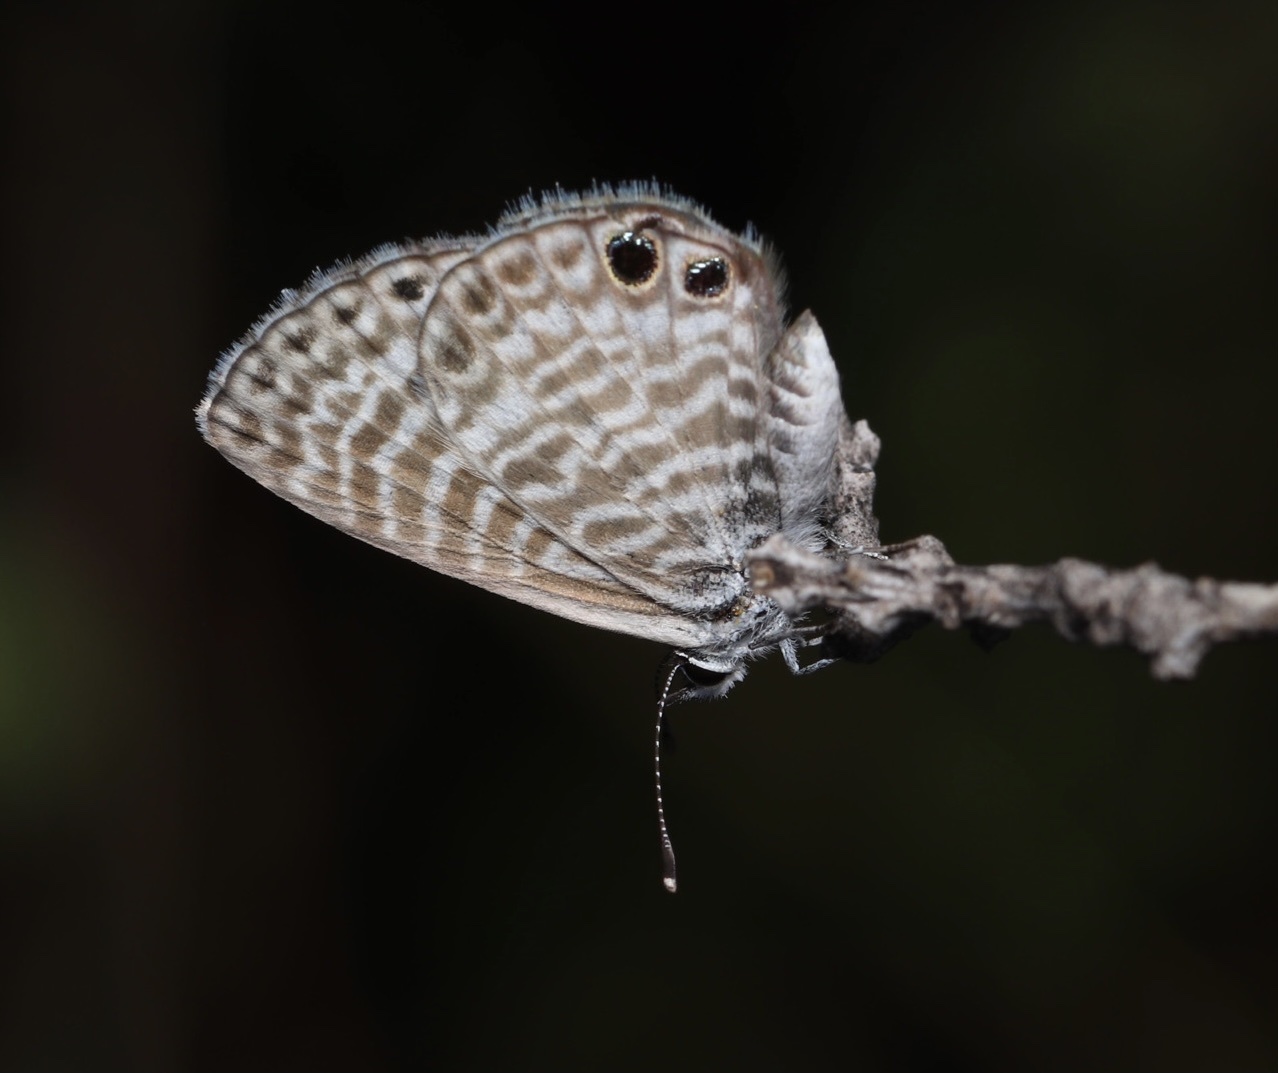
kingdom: Animalia
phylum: Arthropoda
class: Insecta
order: Lepidoptera
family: Lycaenidae
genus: Leptotes
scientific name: Leptotes marina
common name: Marine blue
